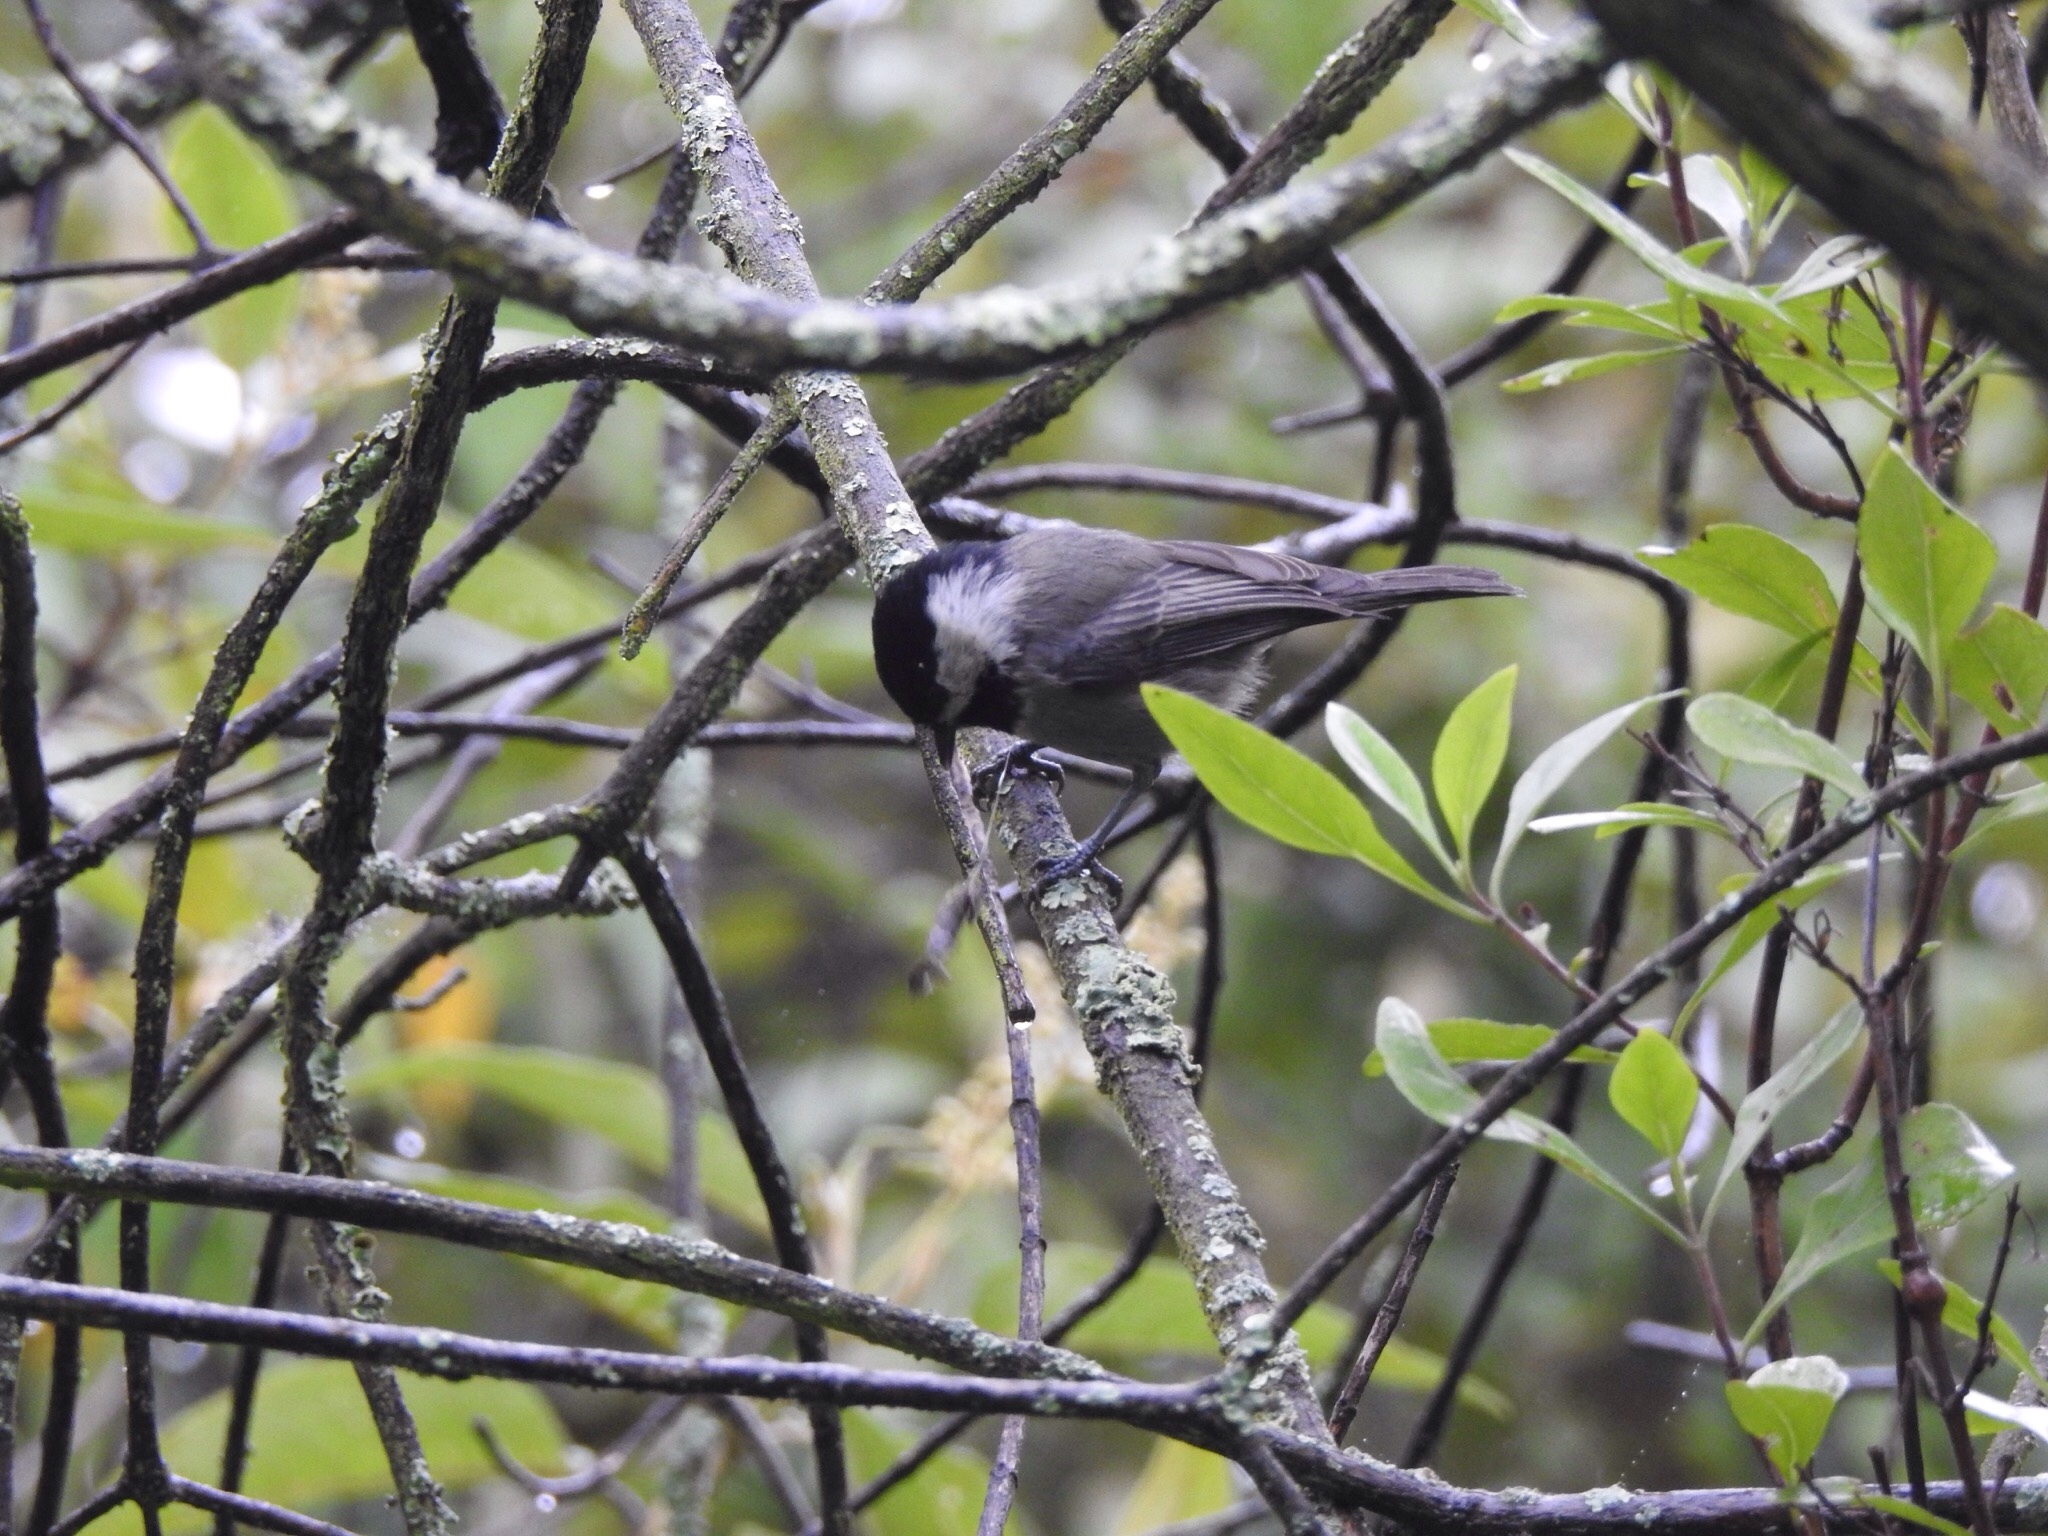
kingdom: Animalia
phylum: Chordata
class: Aves
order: Passeriformes
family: Paridae
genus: Poecile
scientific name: Poecile sclateri
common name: Mexican chickadee
